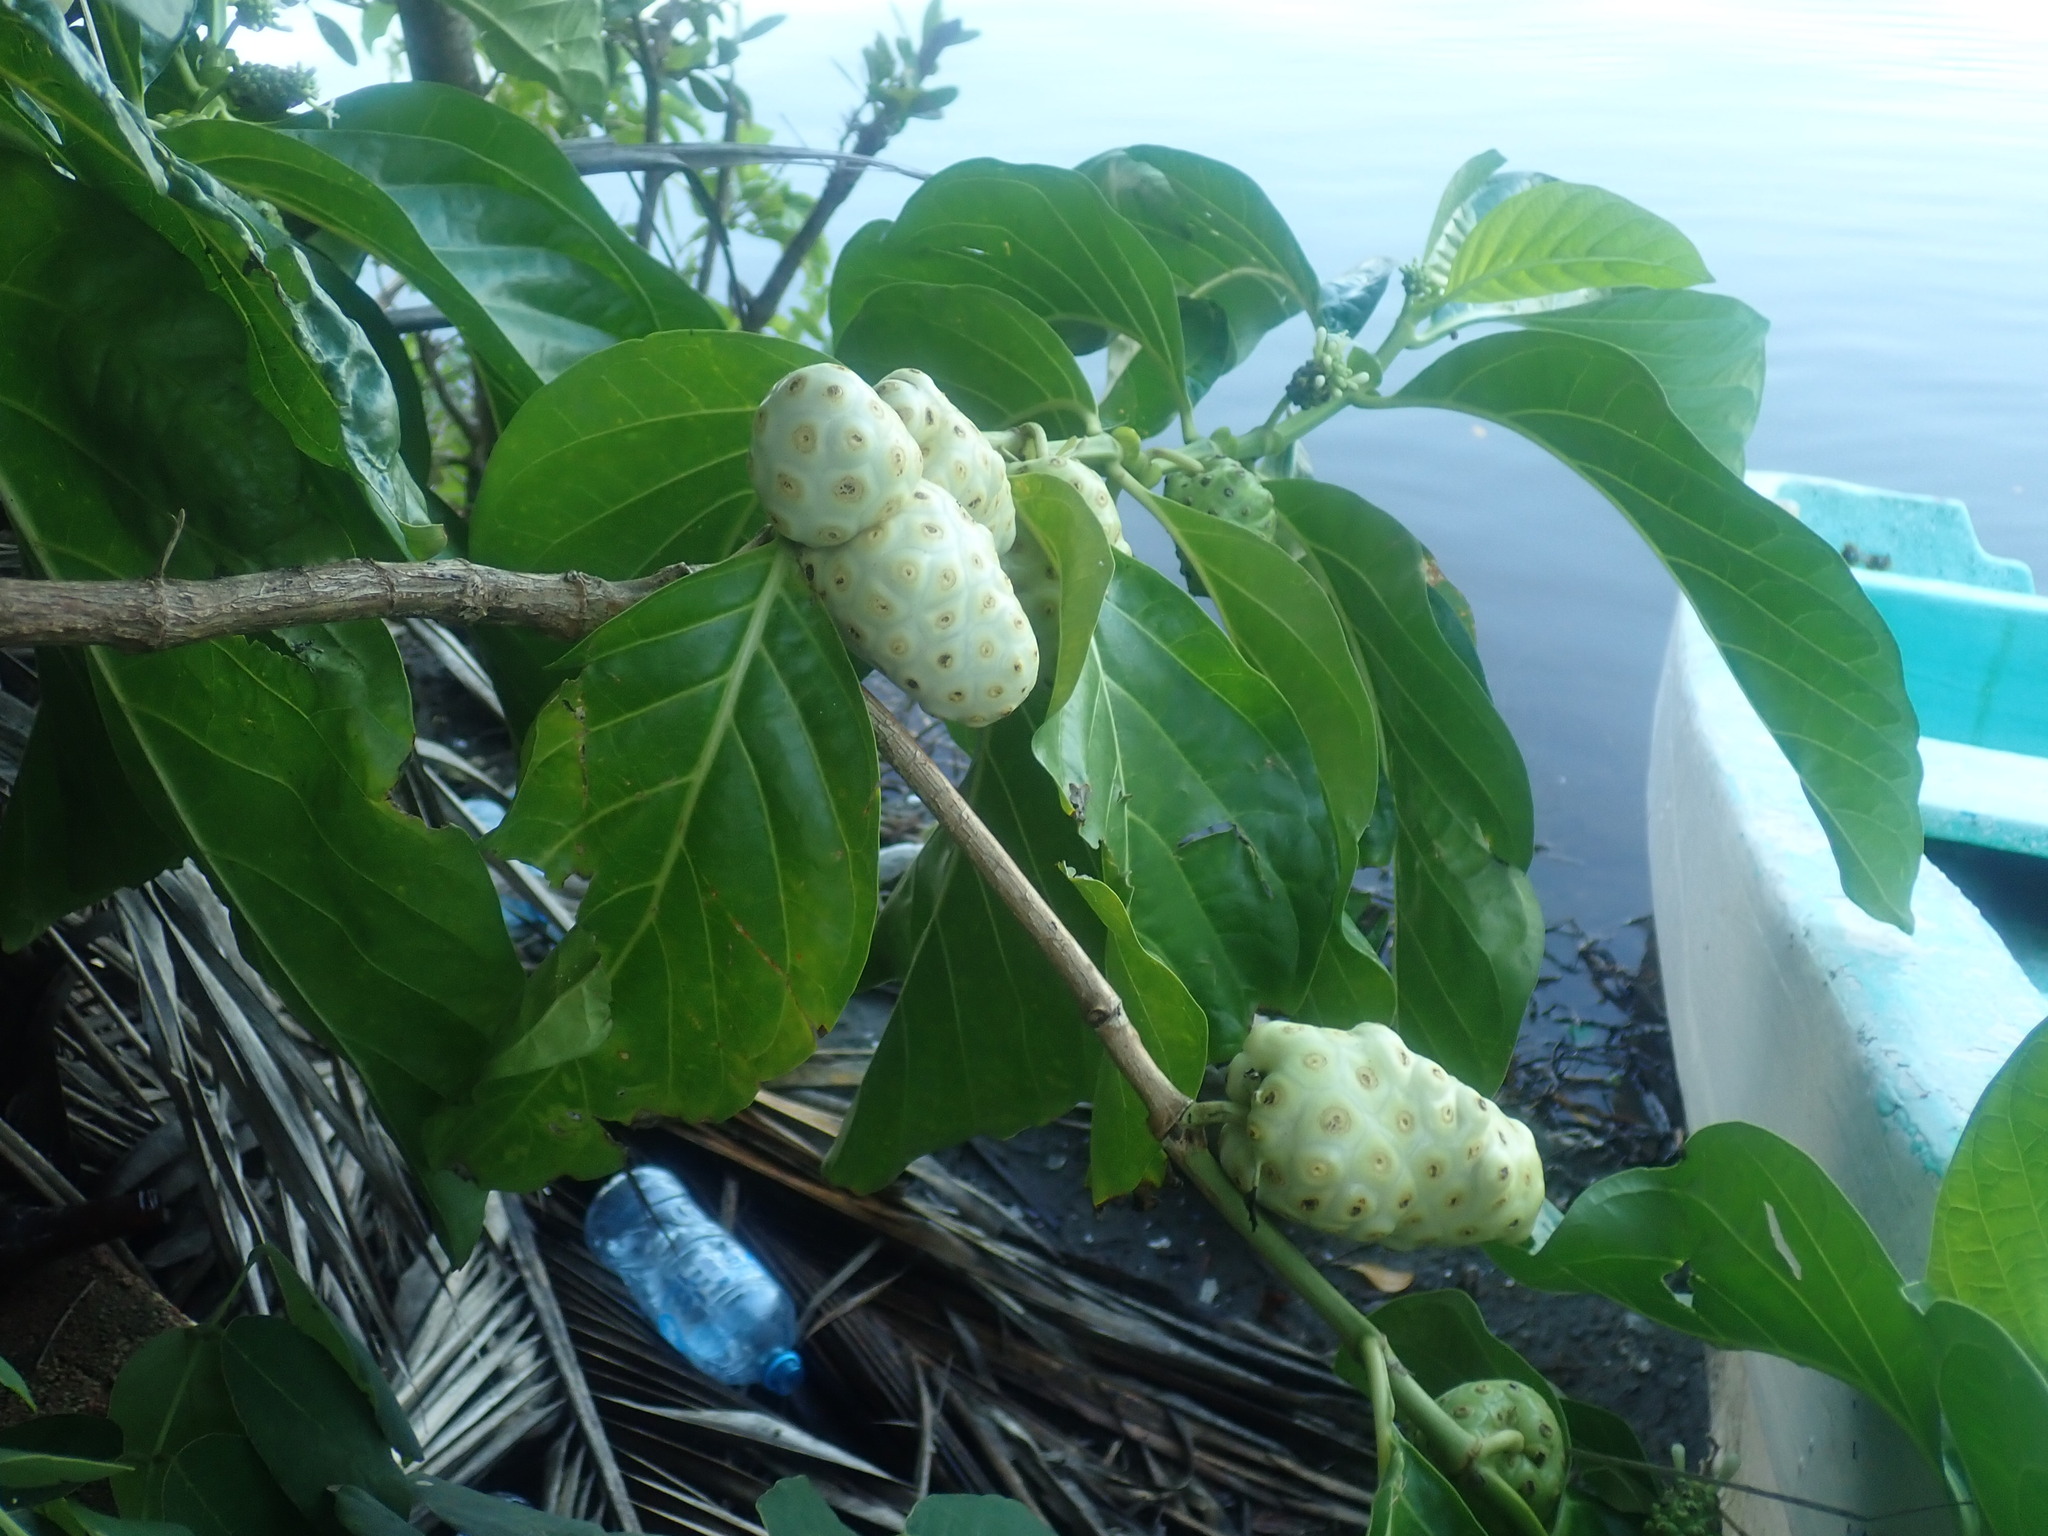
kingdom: Plantae
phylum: Tracheophyta
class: Magnoliopsida
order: Gentianales
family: Rubiaceae
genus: Morinda
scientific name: Morinda citrifolia
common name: Indian-mulberry
